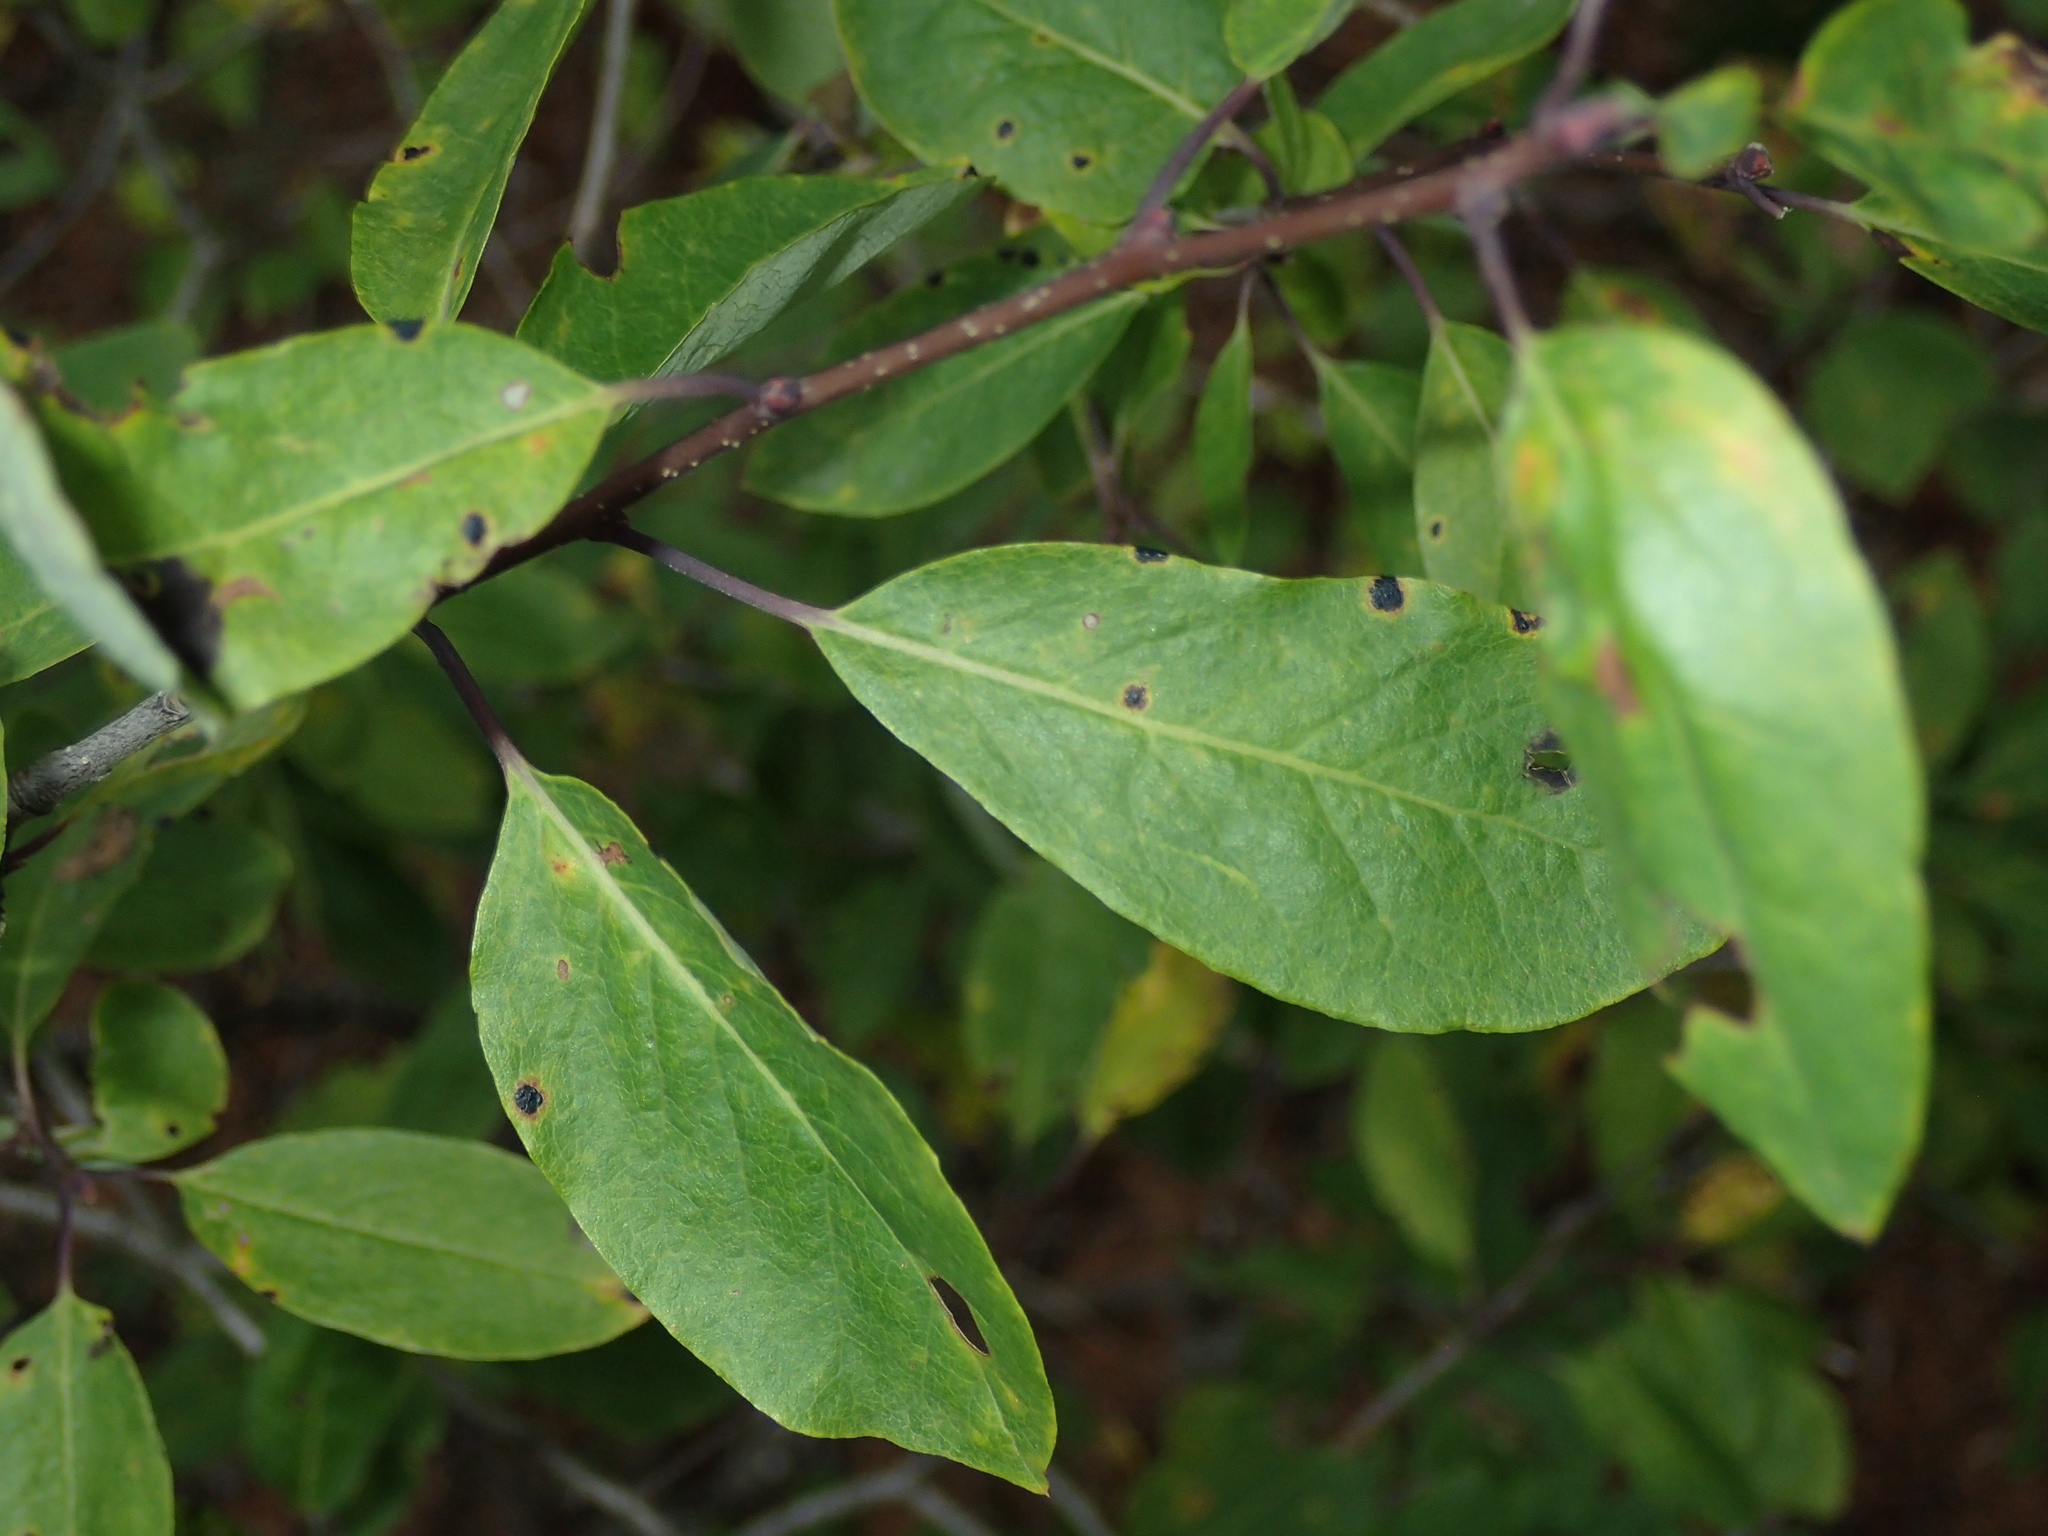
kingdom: Plantae
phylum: Tracheophyta
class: Magnoliopsida
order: Aquifoliales
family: Aquifoliaceae
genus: Ilex
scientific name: Ilex mucronata
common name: Catberry
